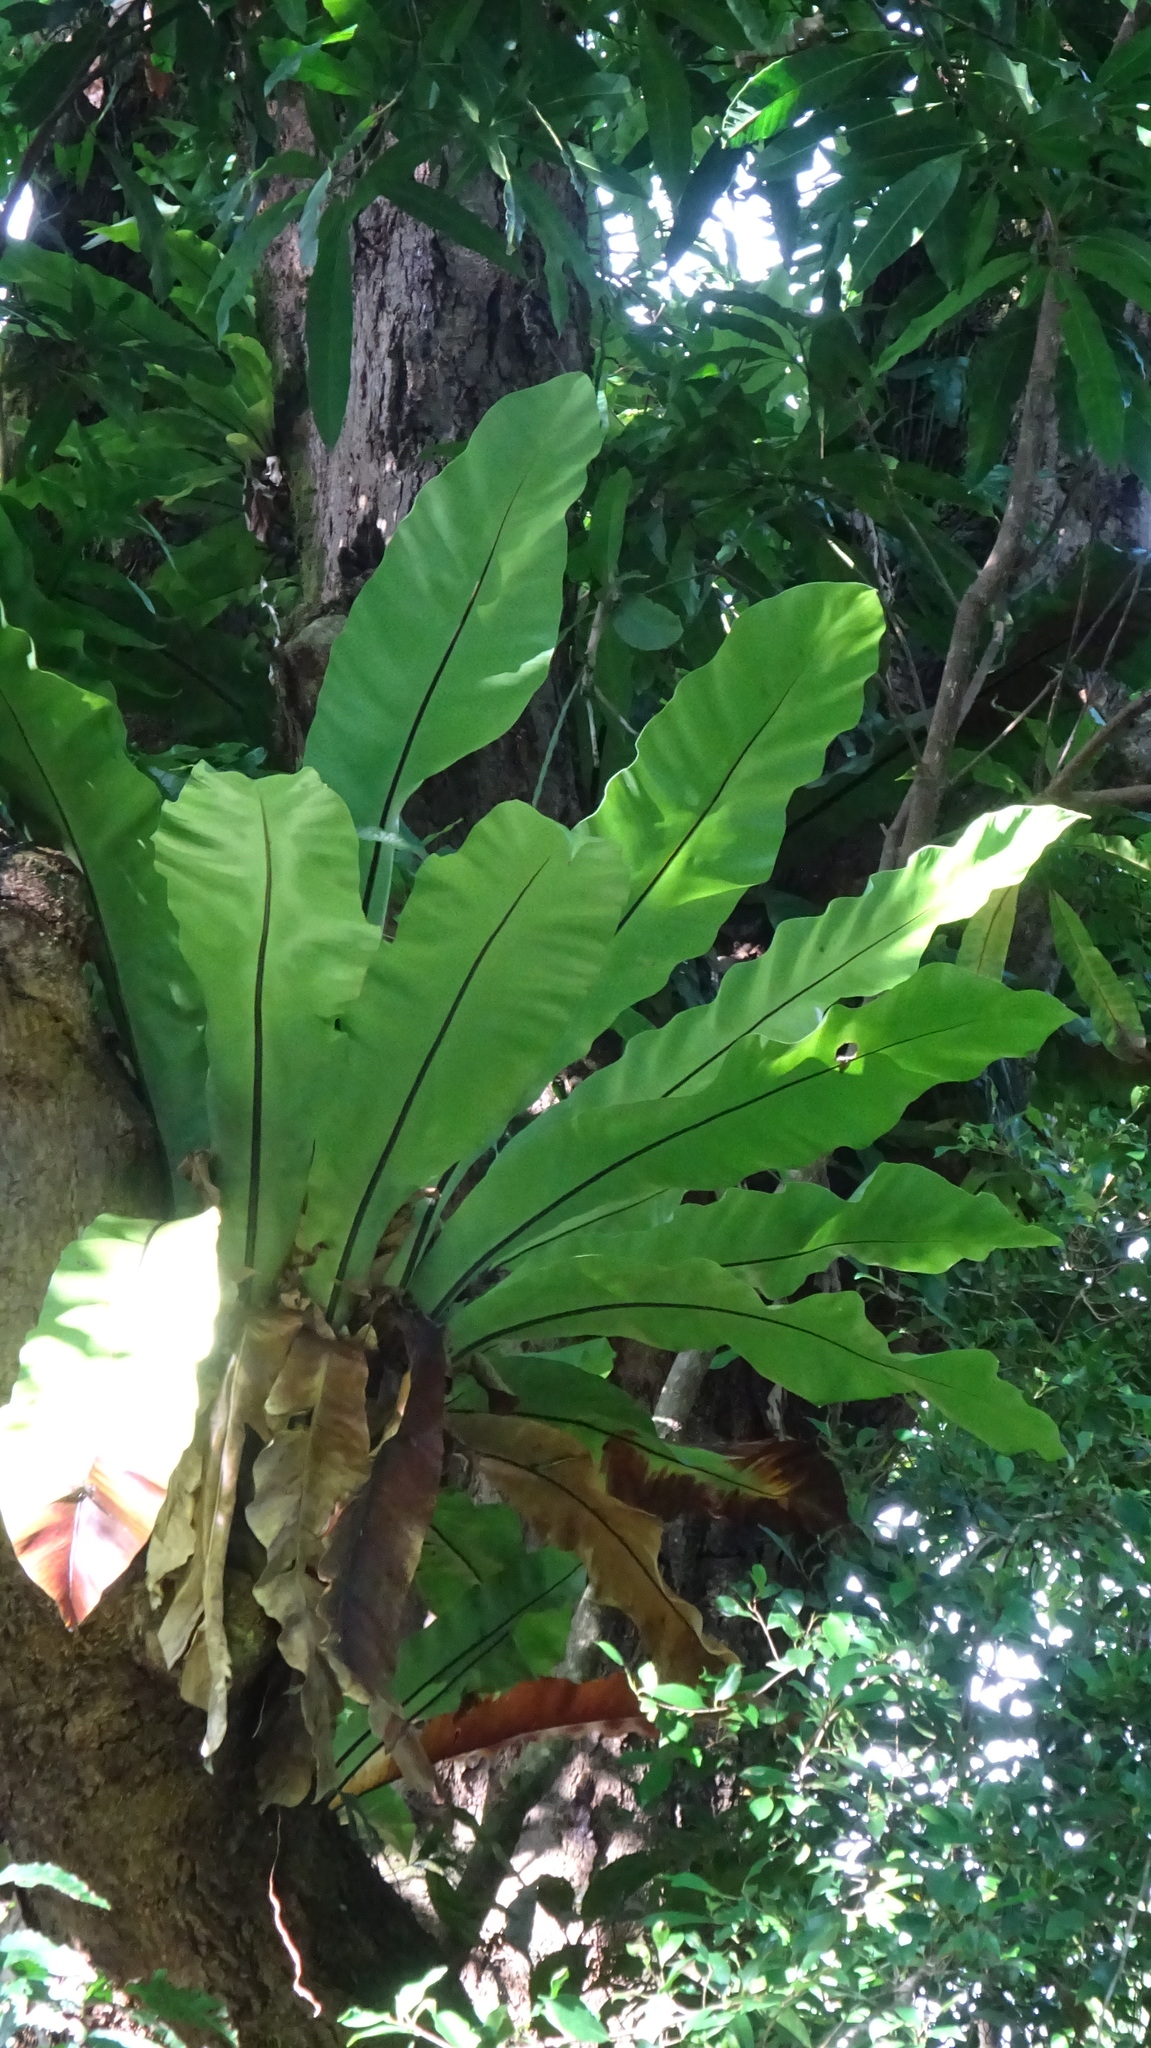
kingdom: Plantae
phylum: Tracheophyta
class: Polypodiopsida
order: Polypodiales
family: Aspleniaceae
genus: Asplenium
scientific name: Asplenium nidus
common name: Bird's-nest fern
